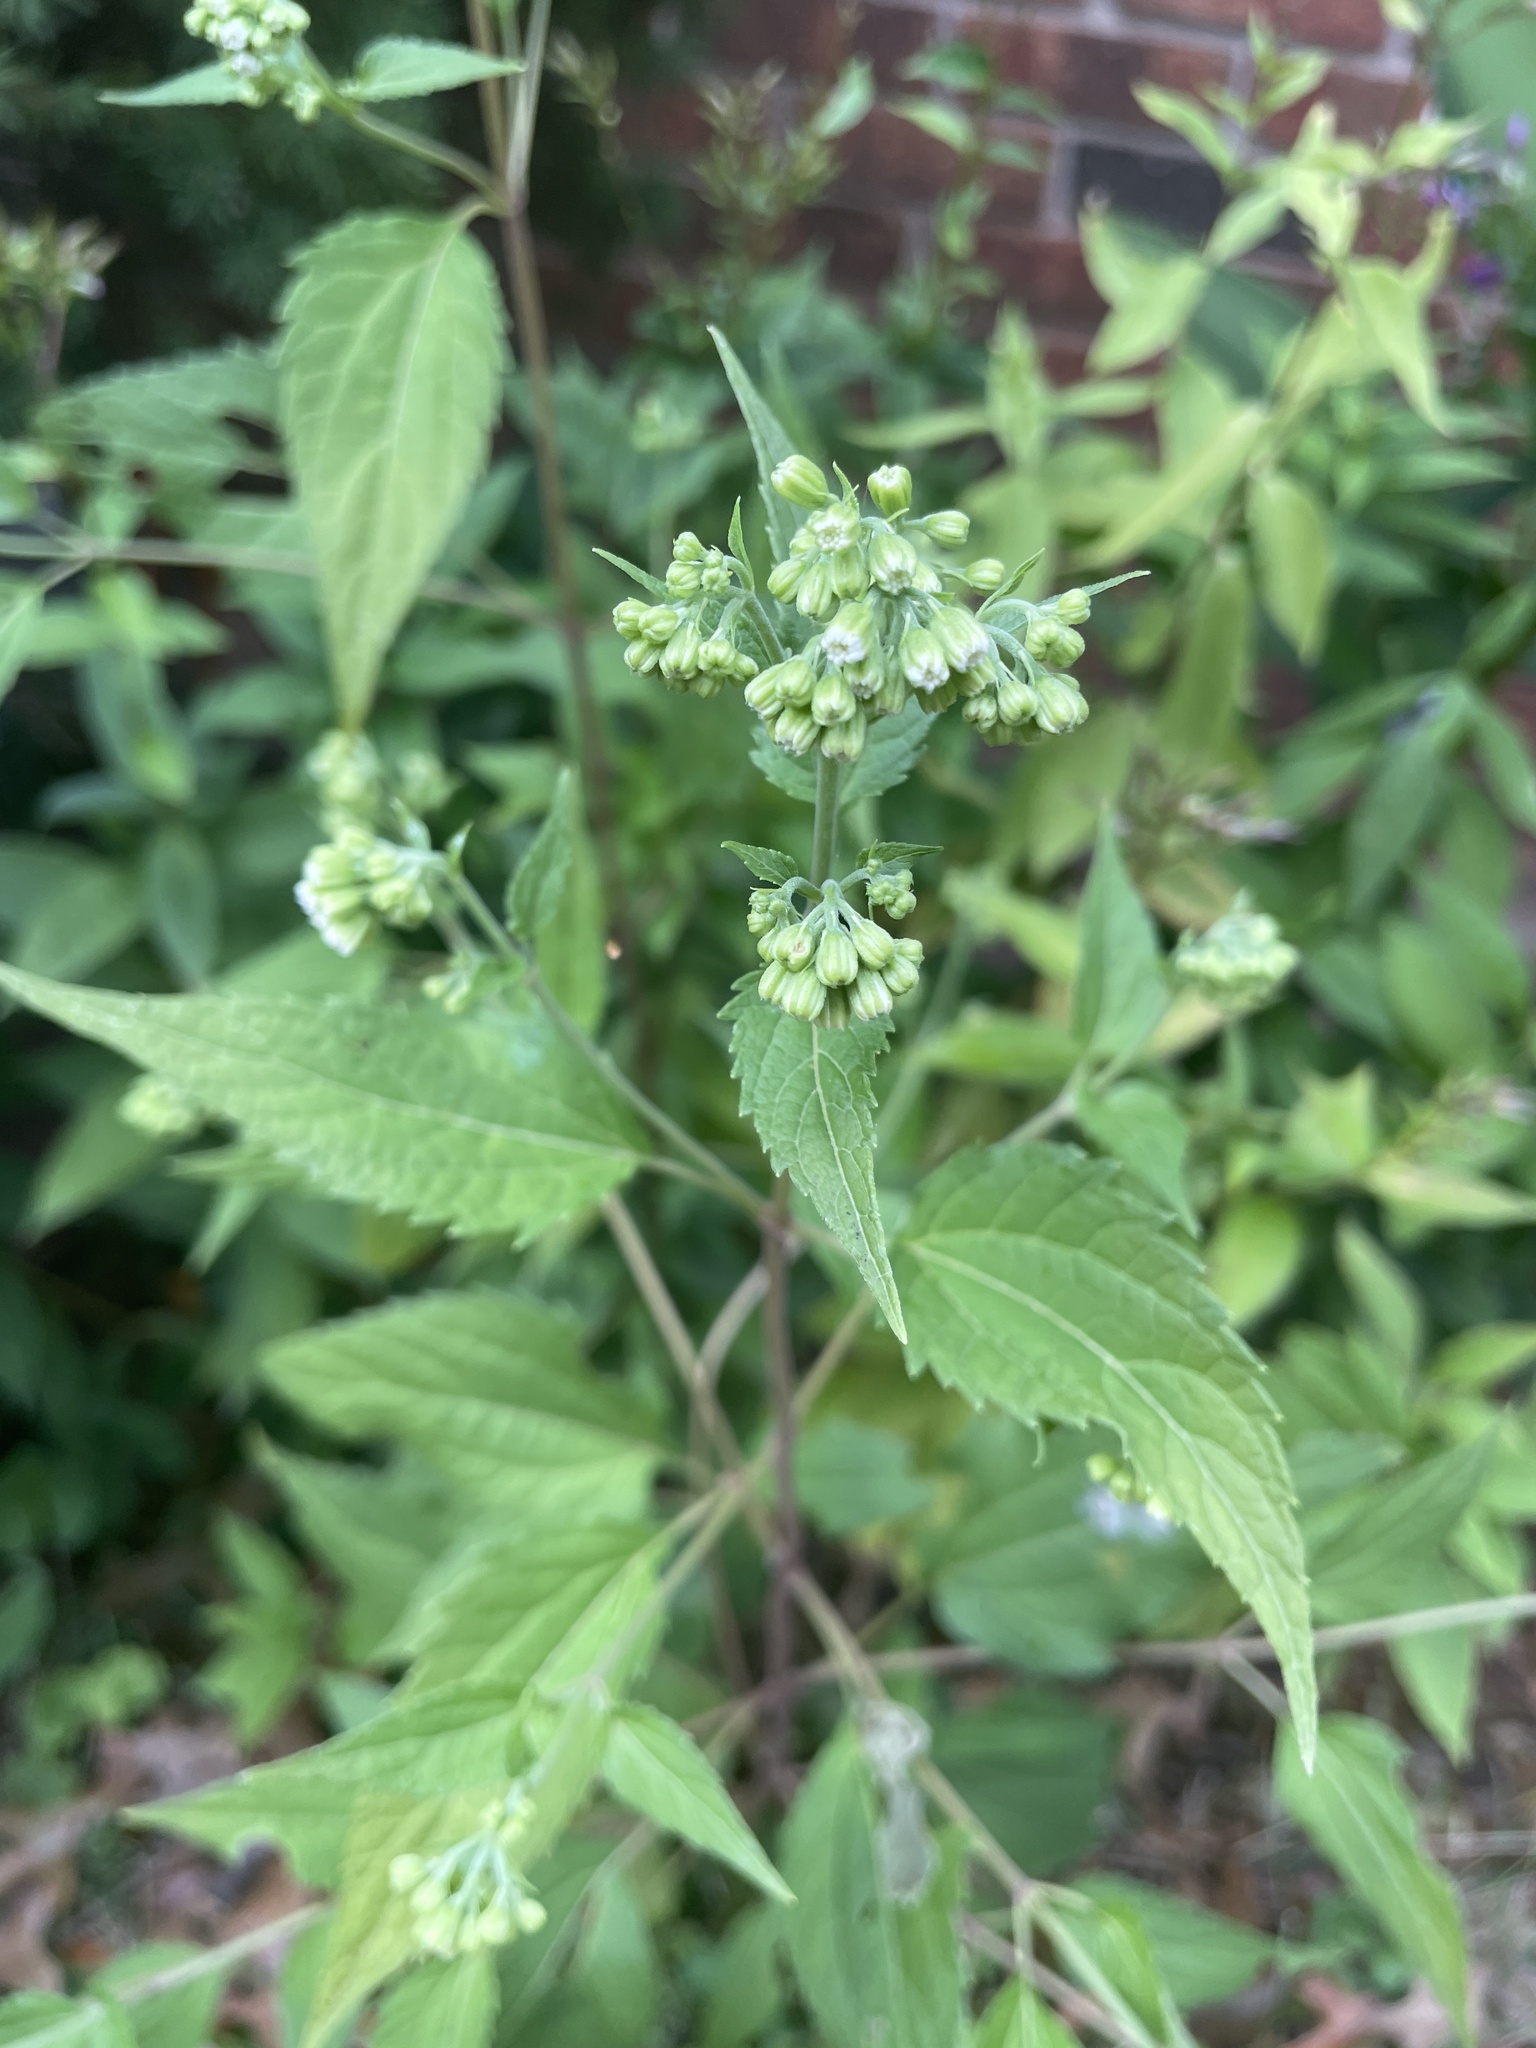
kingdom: Plantae
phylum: Tracheophyta
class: Magnoliopsida
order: Asterales
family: Asteraceae
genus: Ageratina
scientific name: Ageratina altissima
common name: White snakeroot
